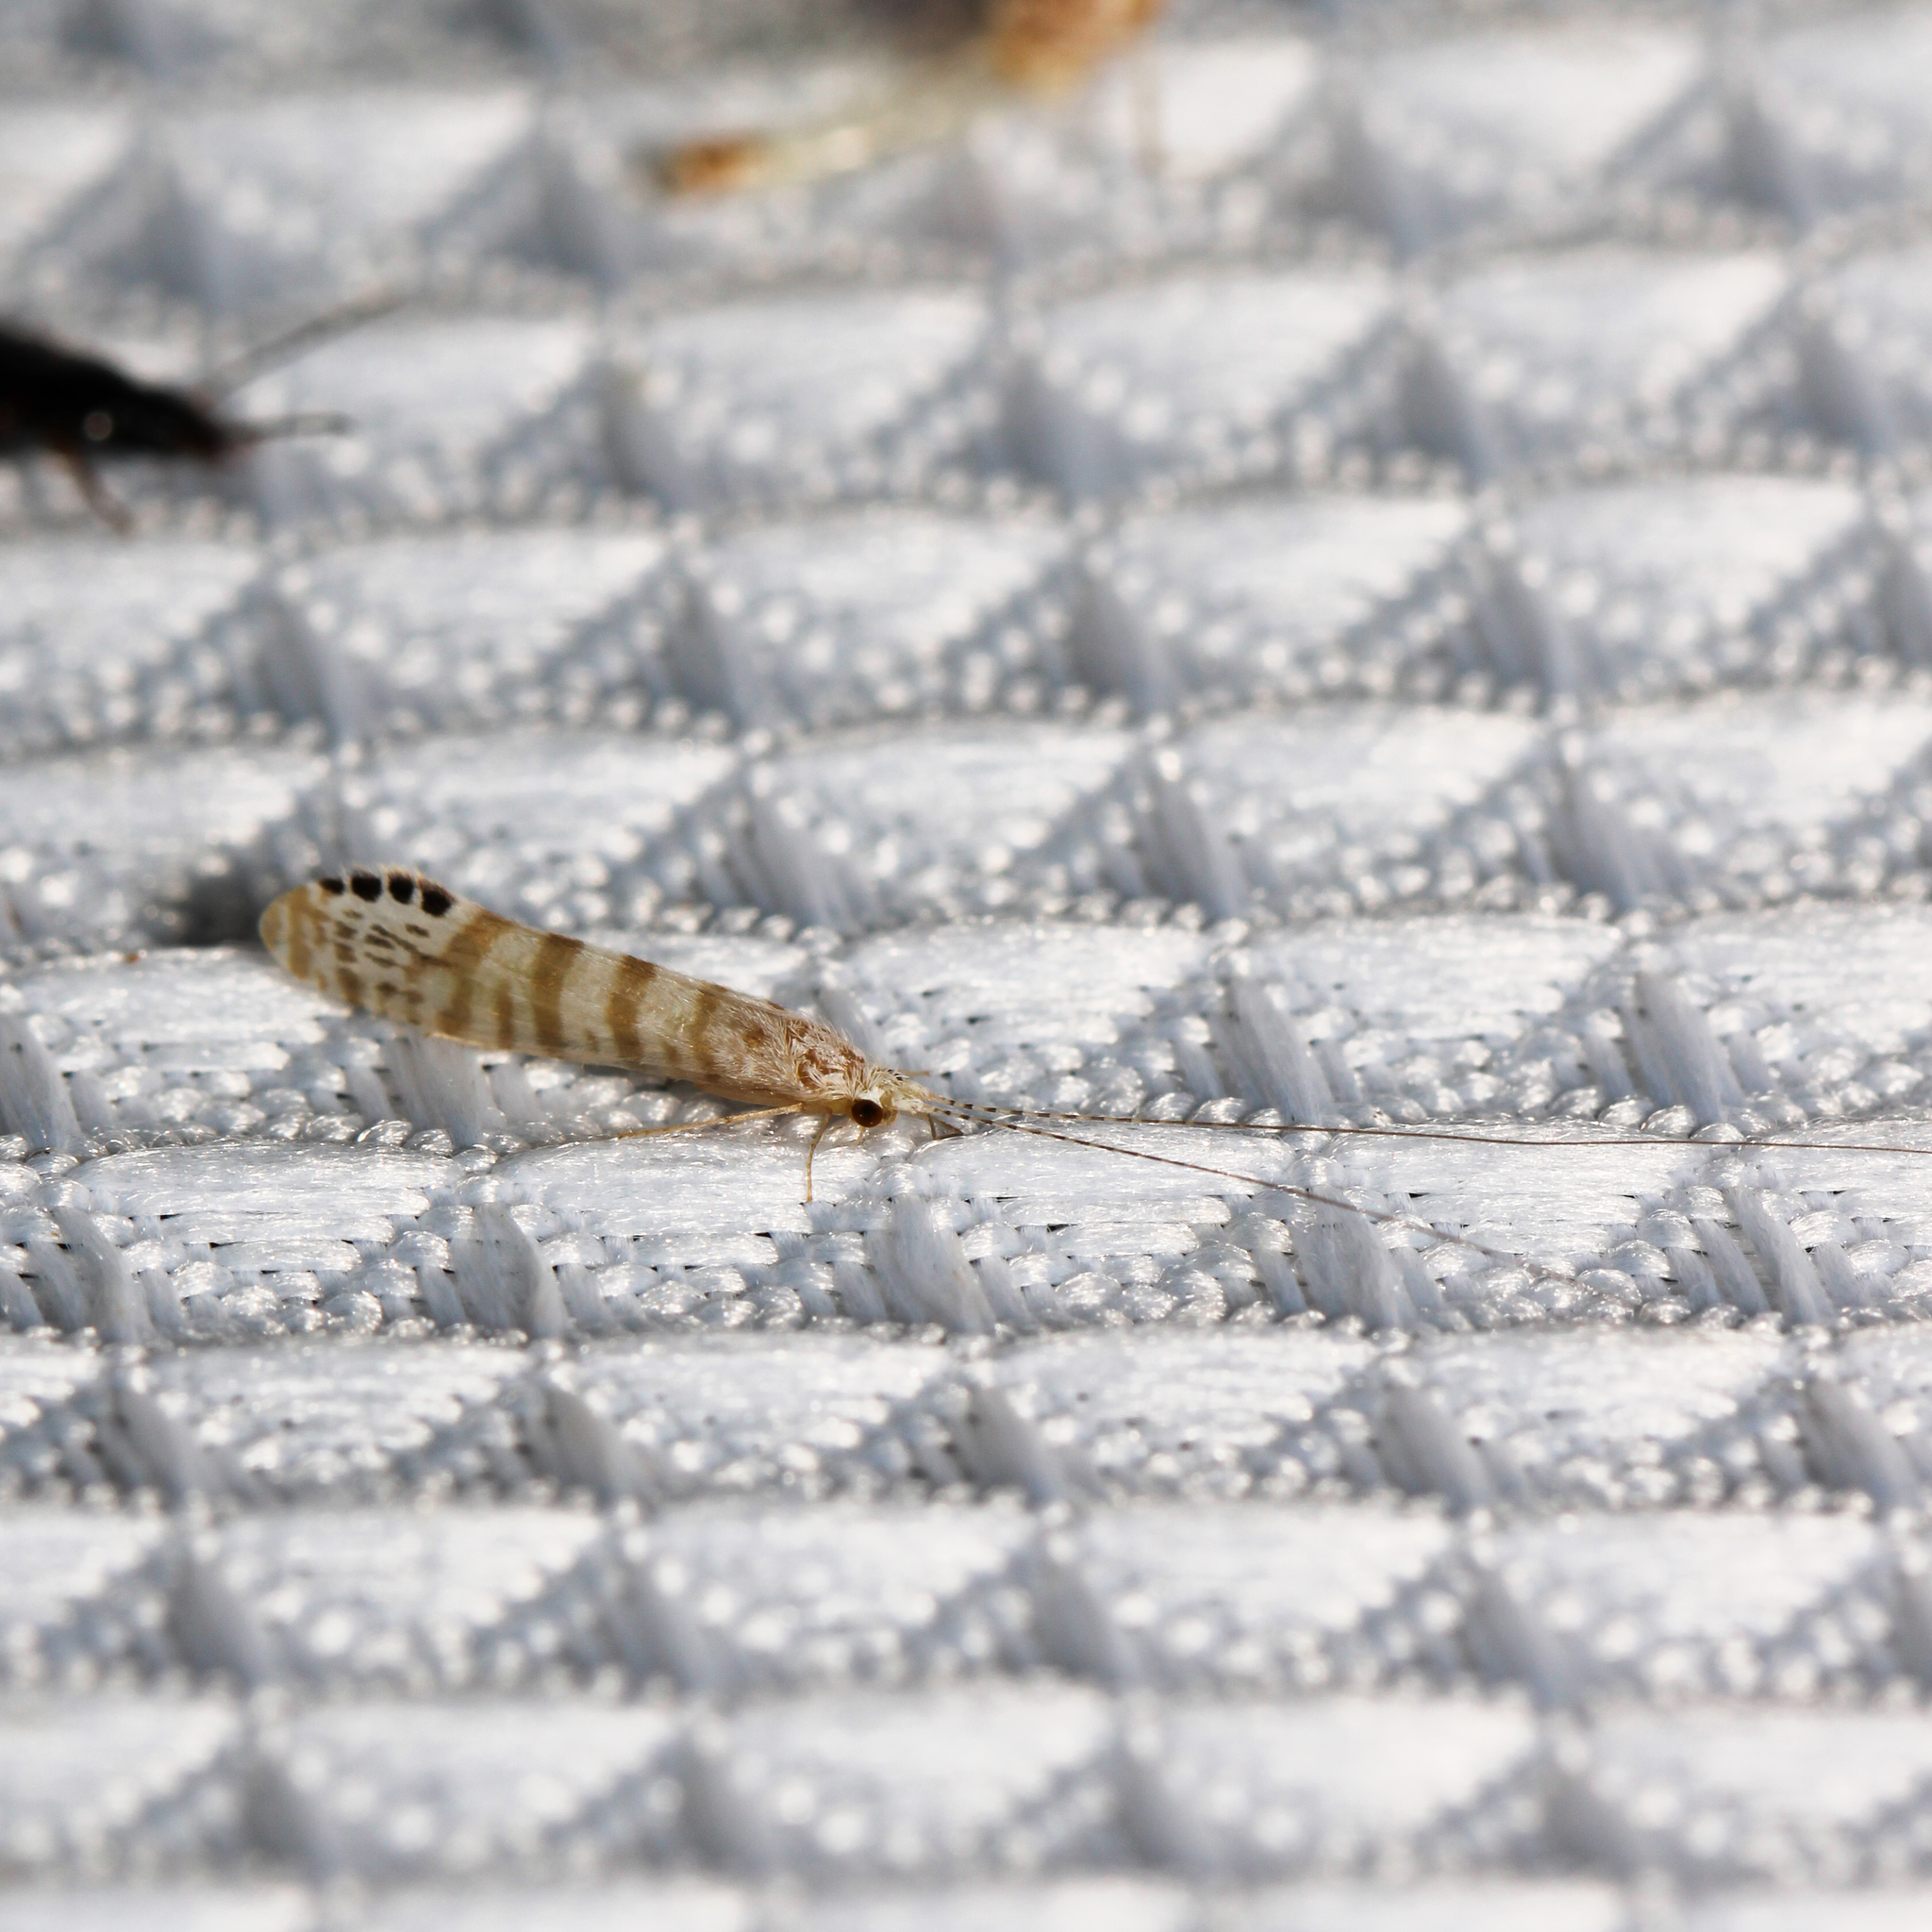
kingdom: Animalia
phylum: Arthropoda
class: Insecta
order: Trichoptera
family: Leptoceridae
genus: Nectopsyche
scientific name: Nectopsyche exquisita
